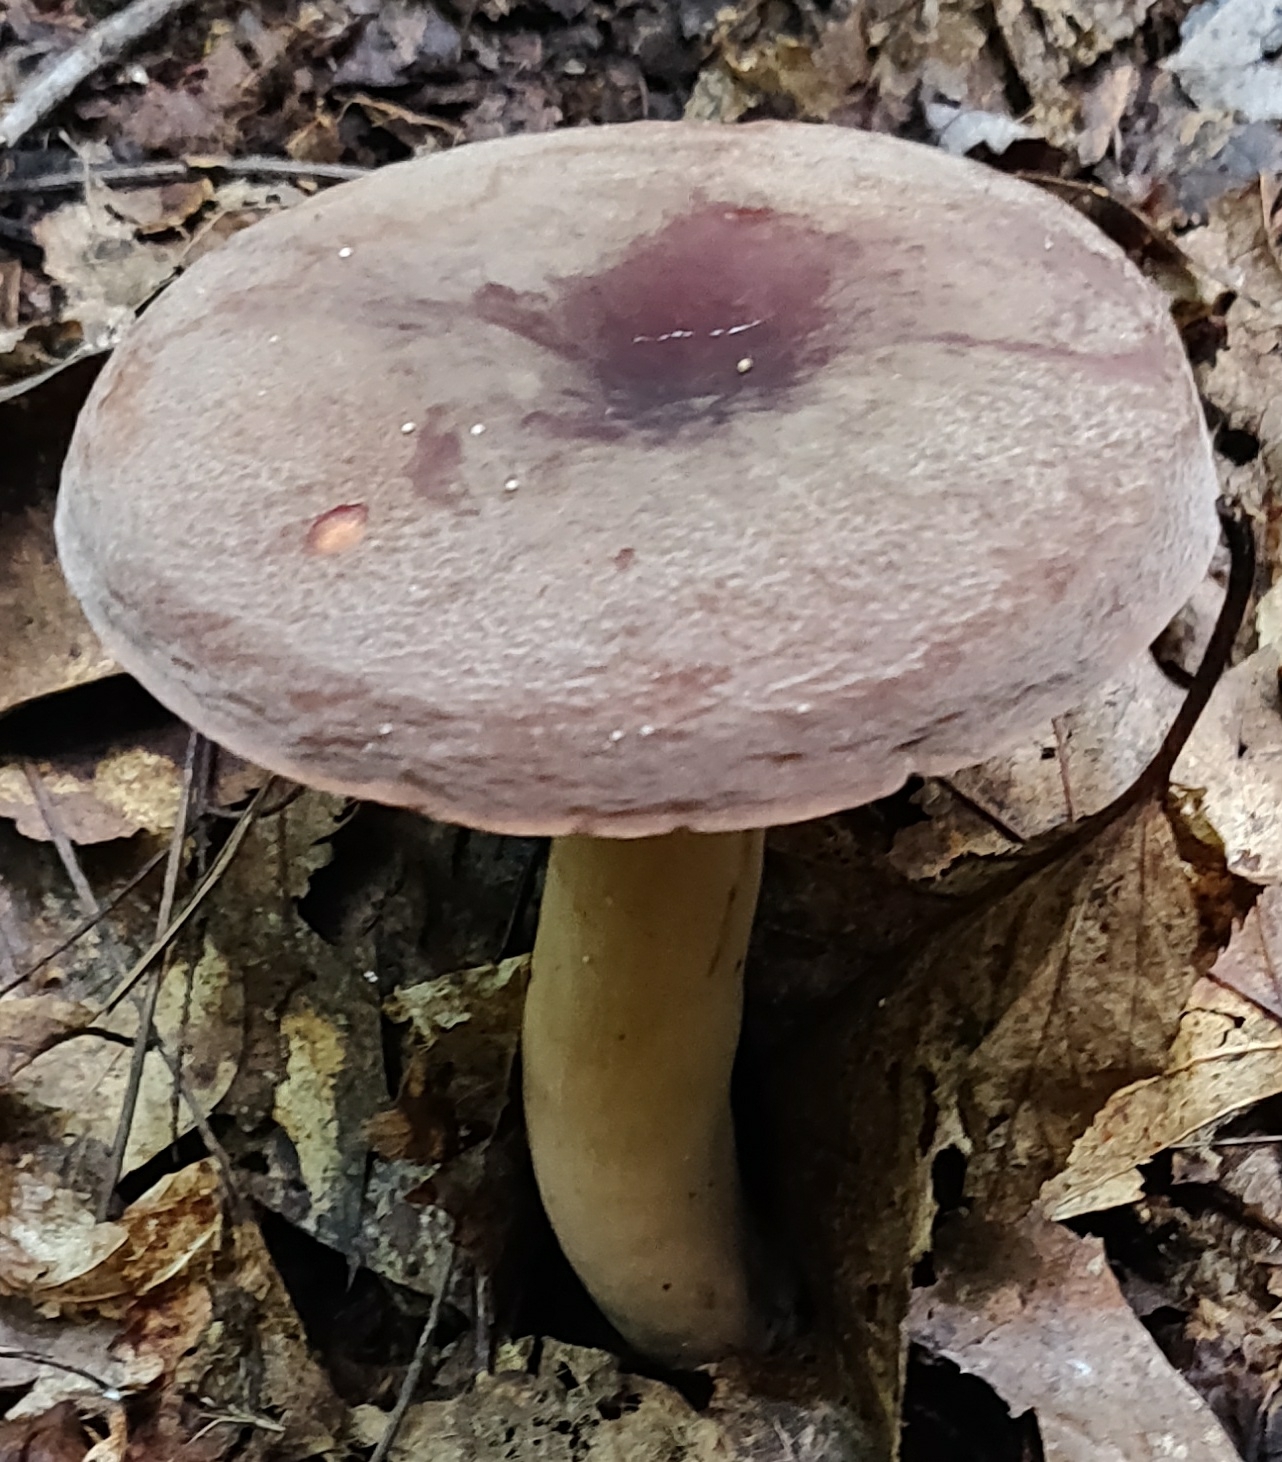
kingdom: Fungi
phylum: Basidiomycota
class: Agaricomycetes
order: Russulales
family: Russulaceae
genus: Lactarius
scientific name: Lactarius corrugis
